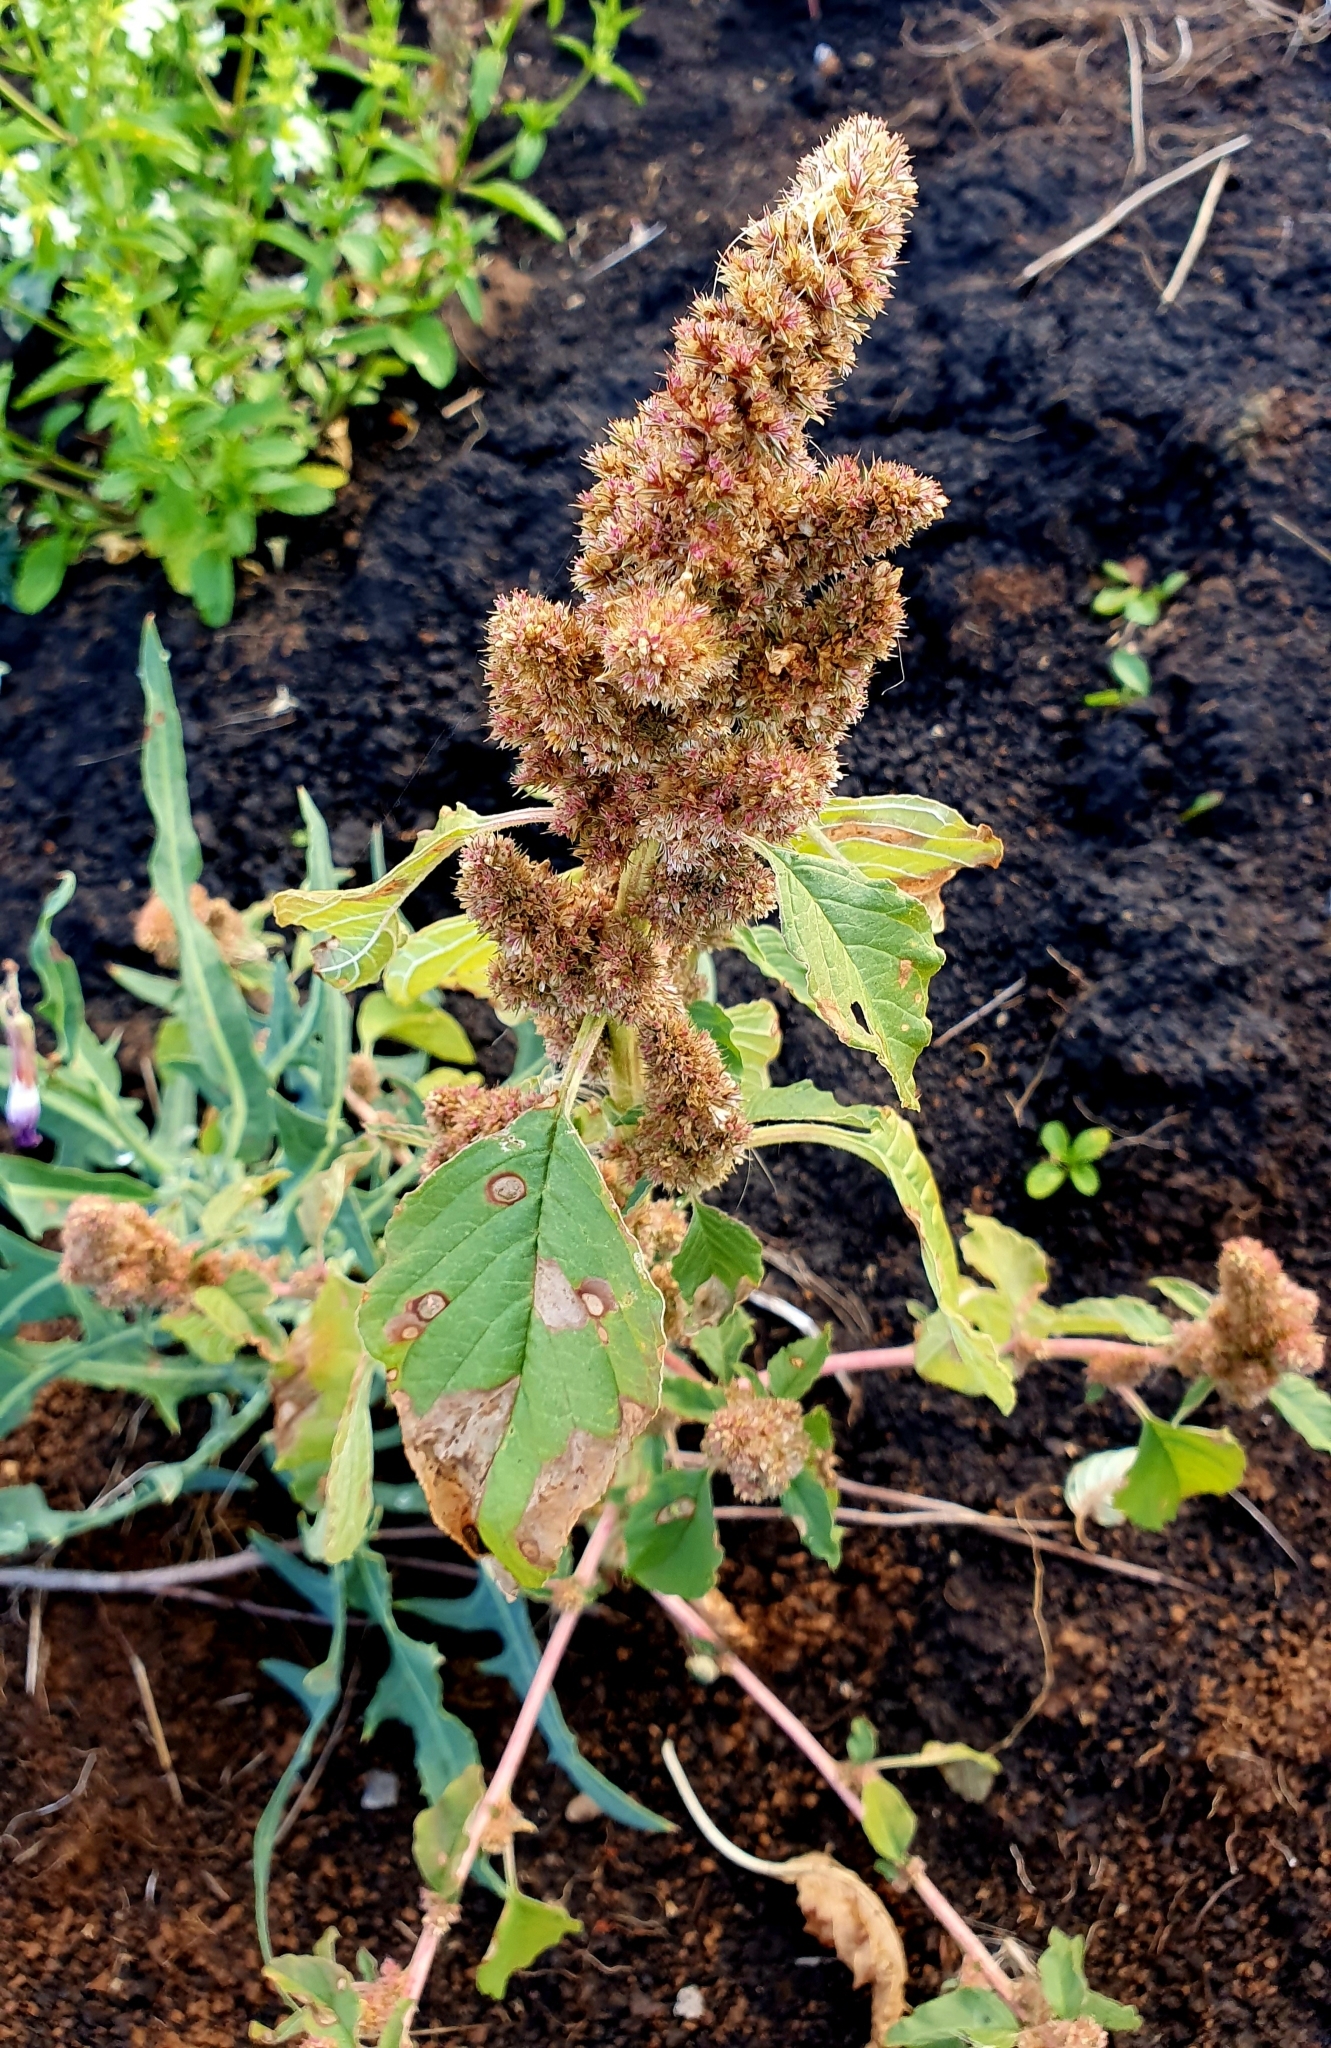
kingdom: Plantae
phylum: Tracheophyta
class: Magnoliopsida
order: Caryophyllales
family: Amaranthaceae
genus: Amaranthus
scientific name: Amaranthus retroflexus
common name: Redroot amaranth
